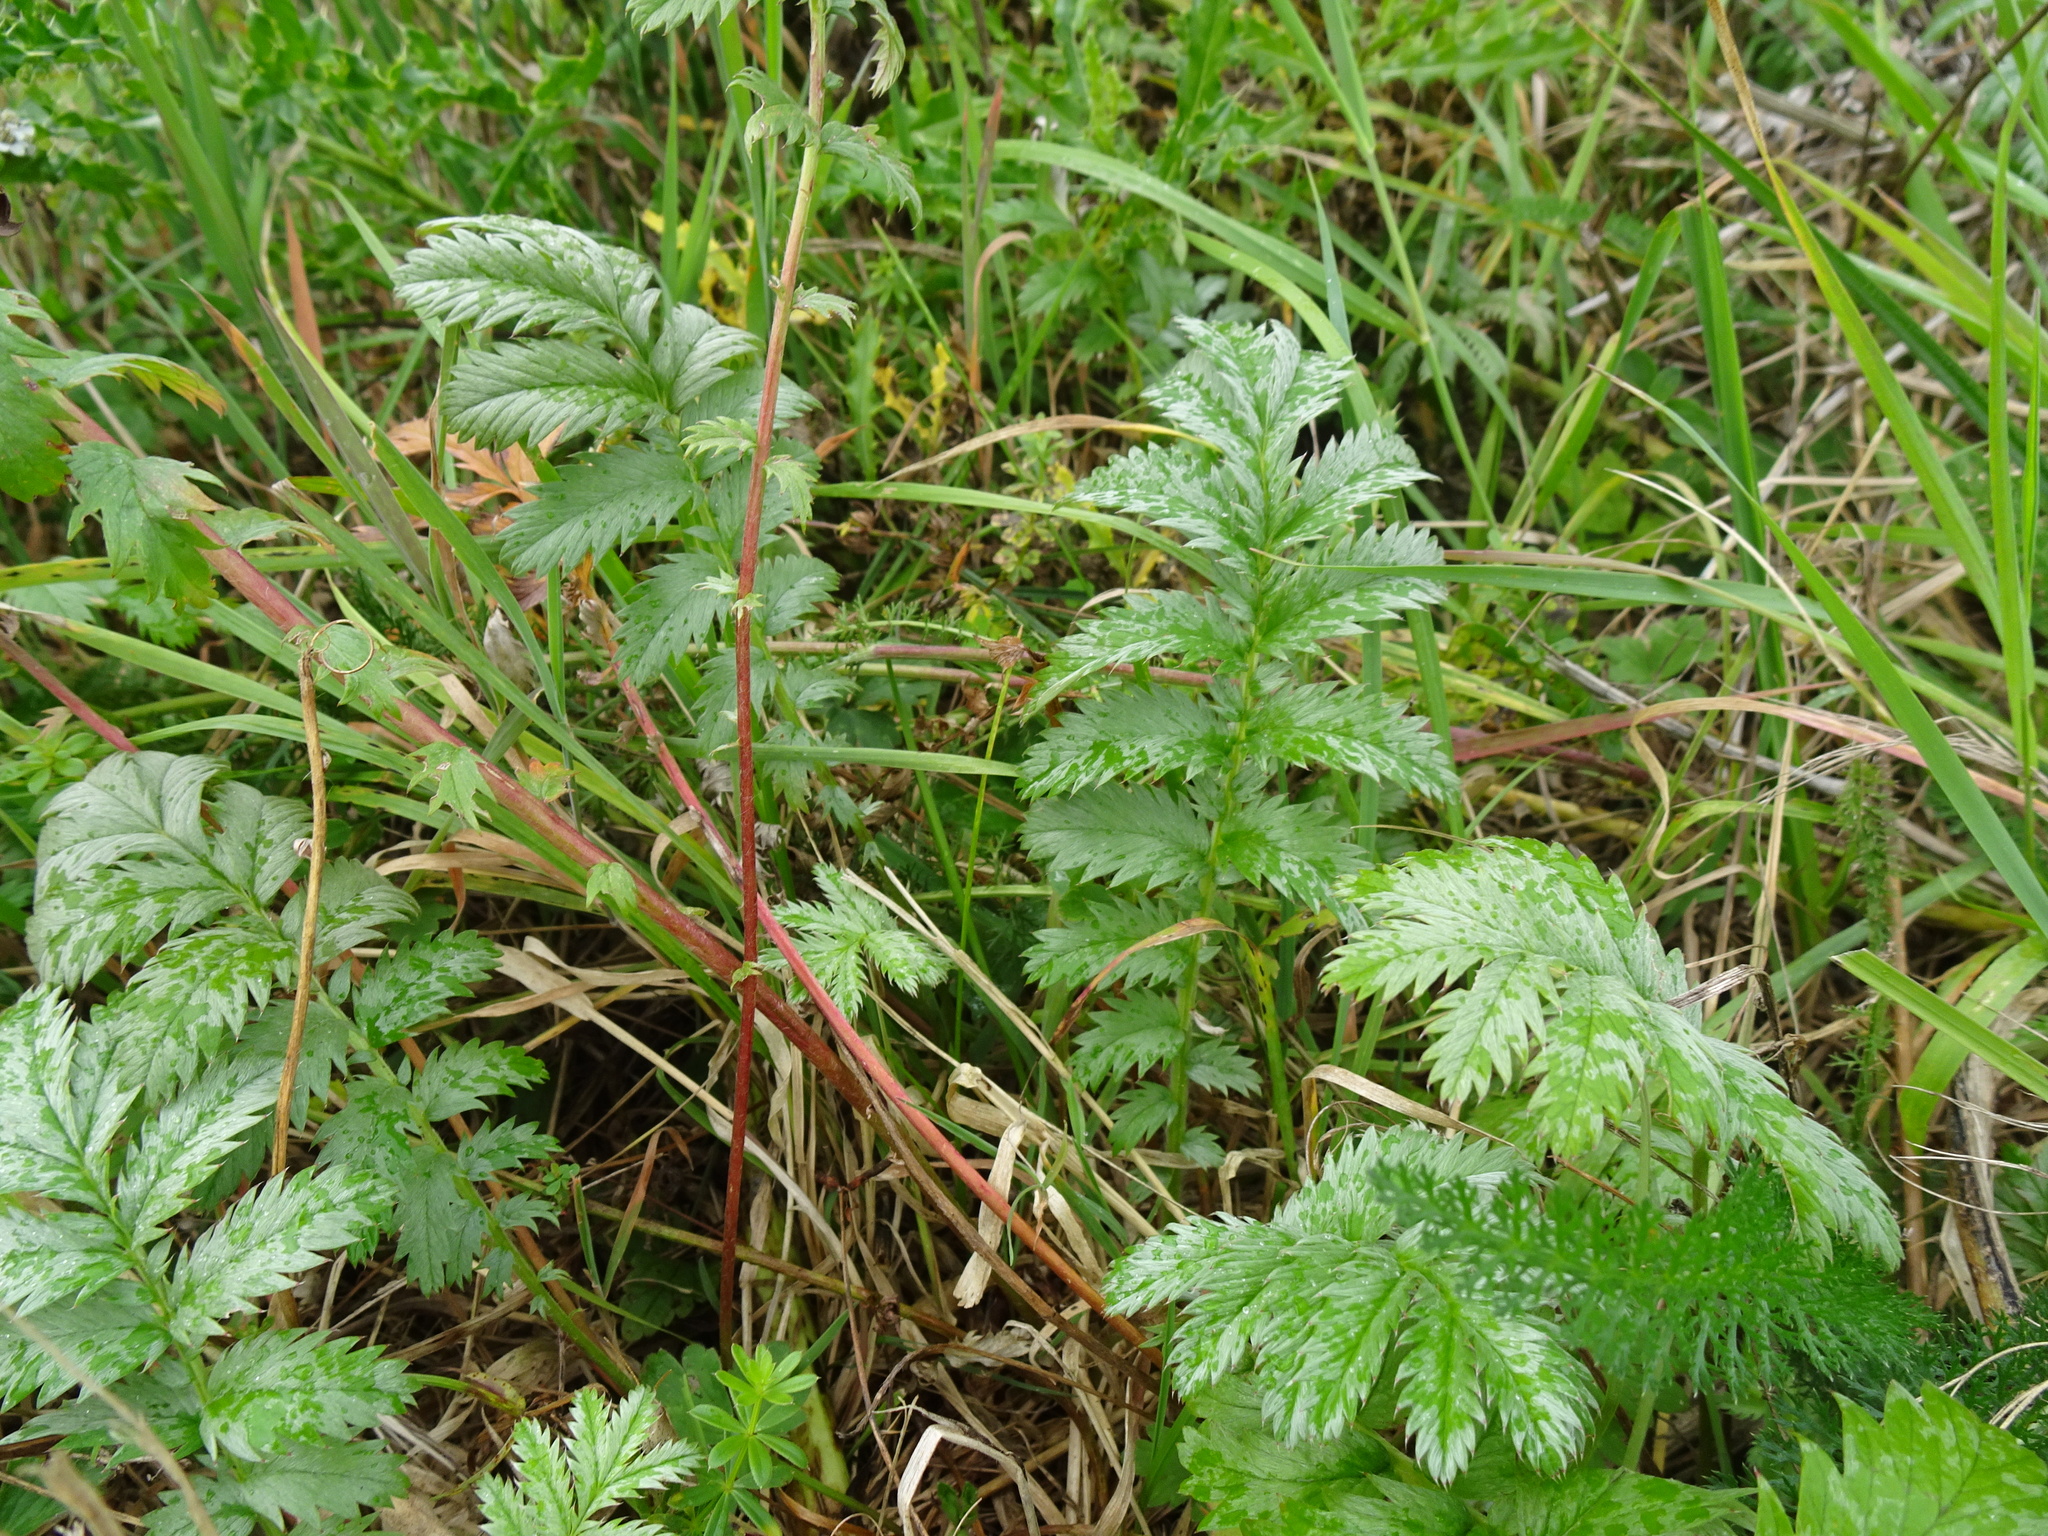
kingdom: Plantae
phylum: Tracheophyta
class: Magnoliopsida
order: Rosales
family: Rosaceae
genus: Argentina
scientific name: Argentina anserina
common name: Common silverweed
